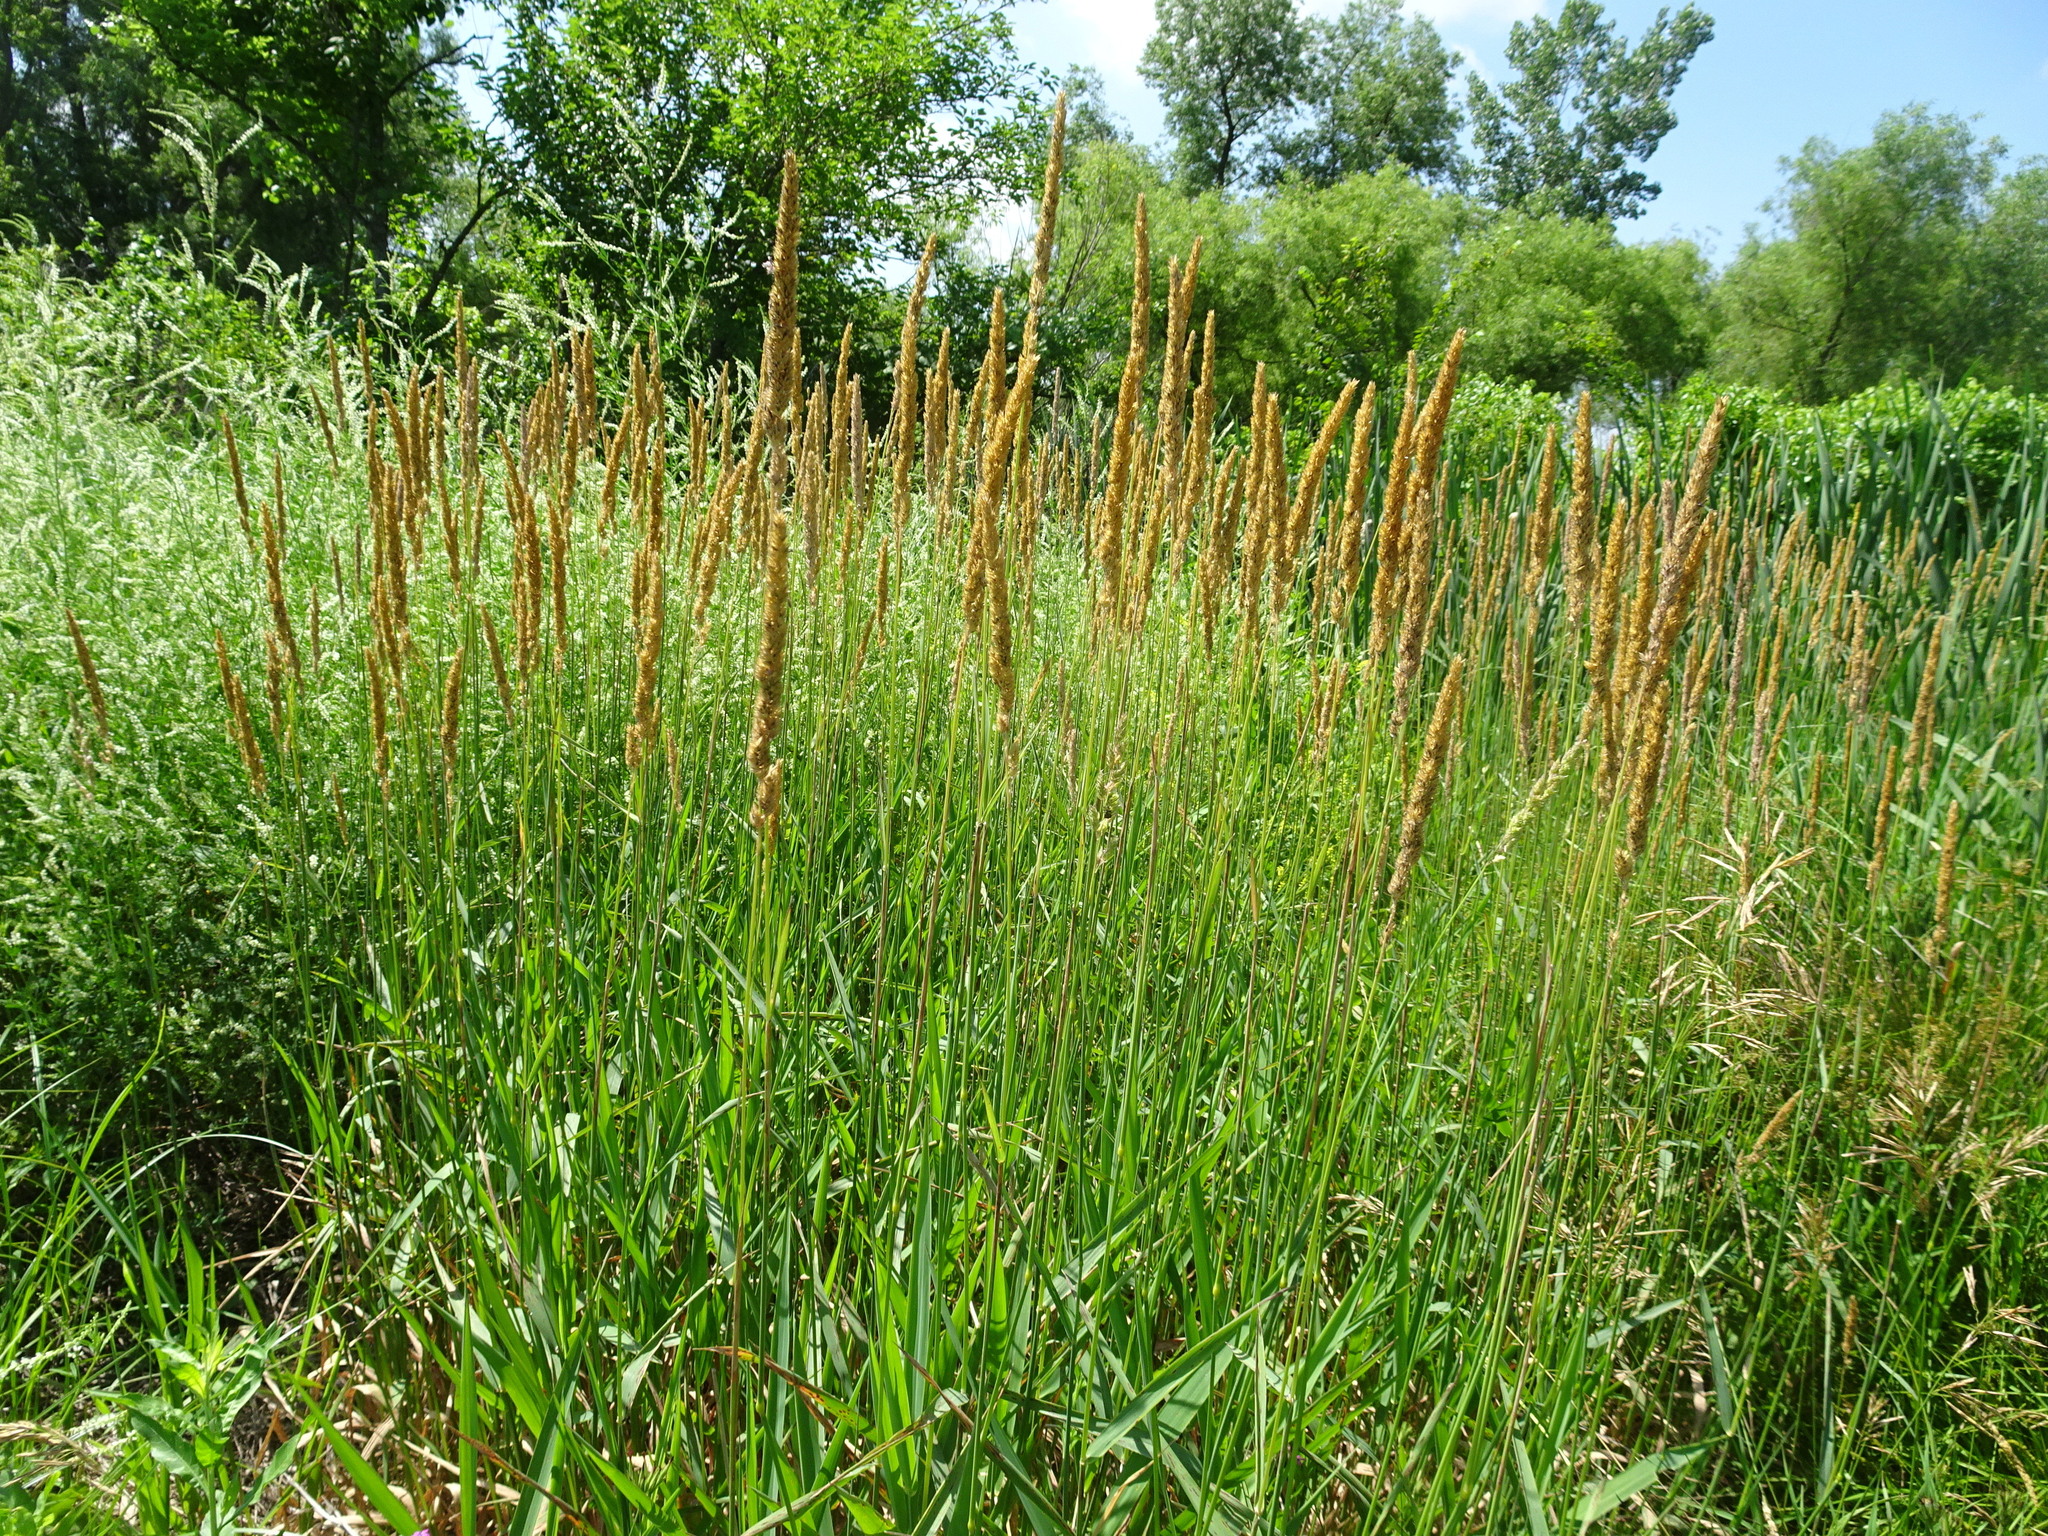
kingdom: Plantae
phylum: Tracheophyta
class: Liliopsida
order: Poales
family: Poaceae
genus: Phalaris
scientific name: Phalaris arundinacea
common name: Reed canary-grass
